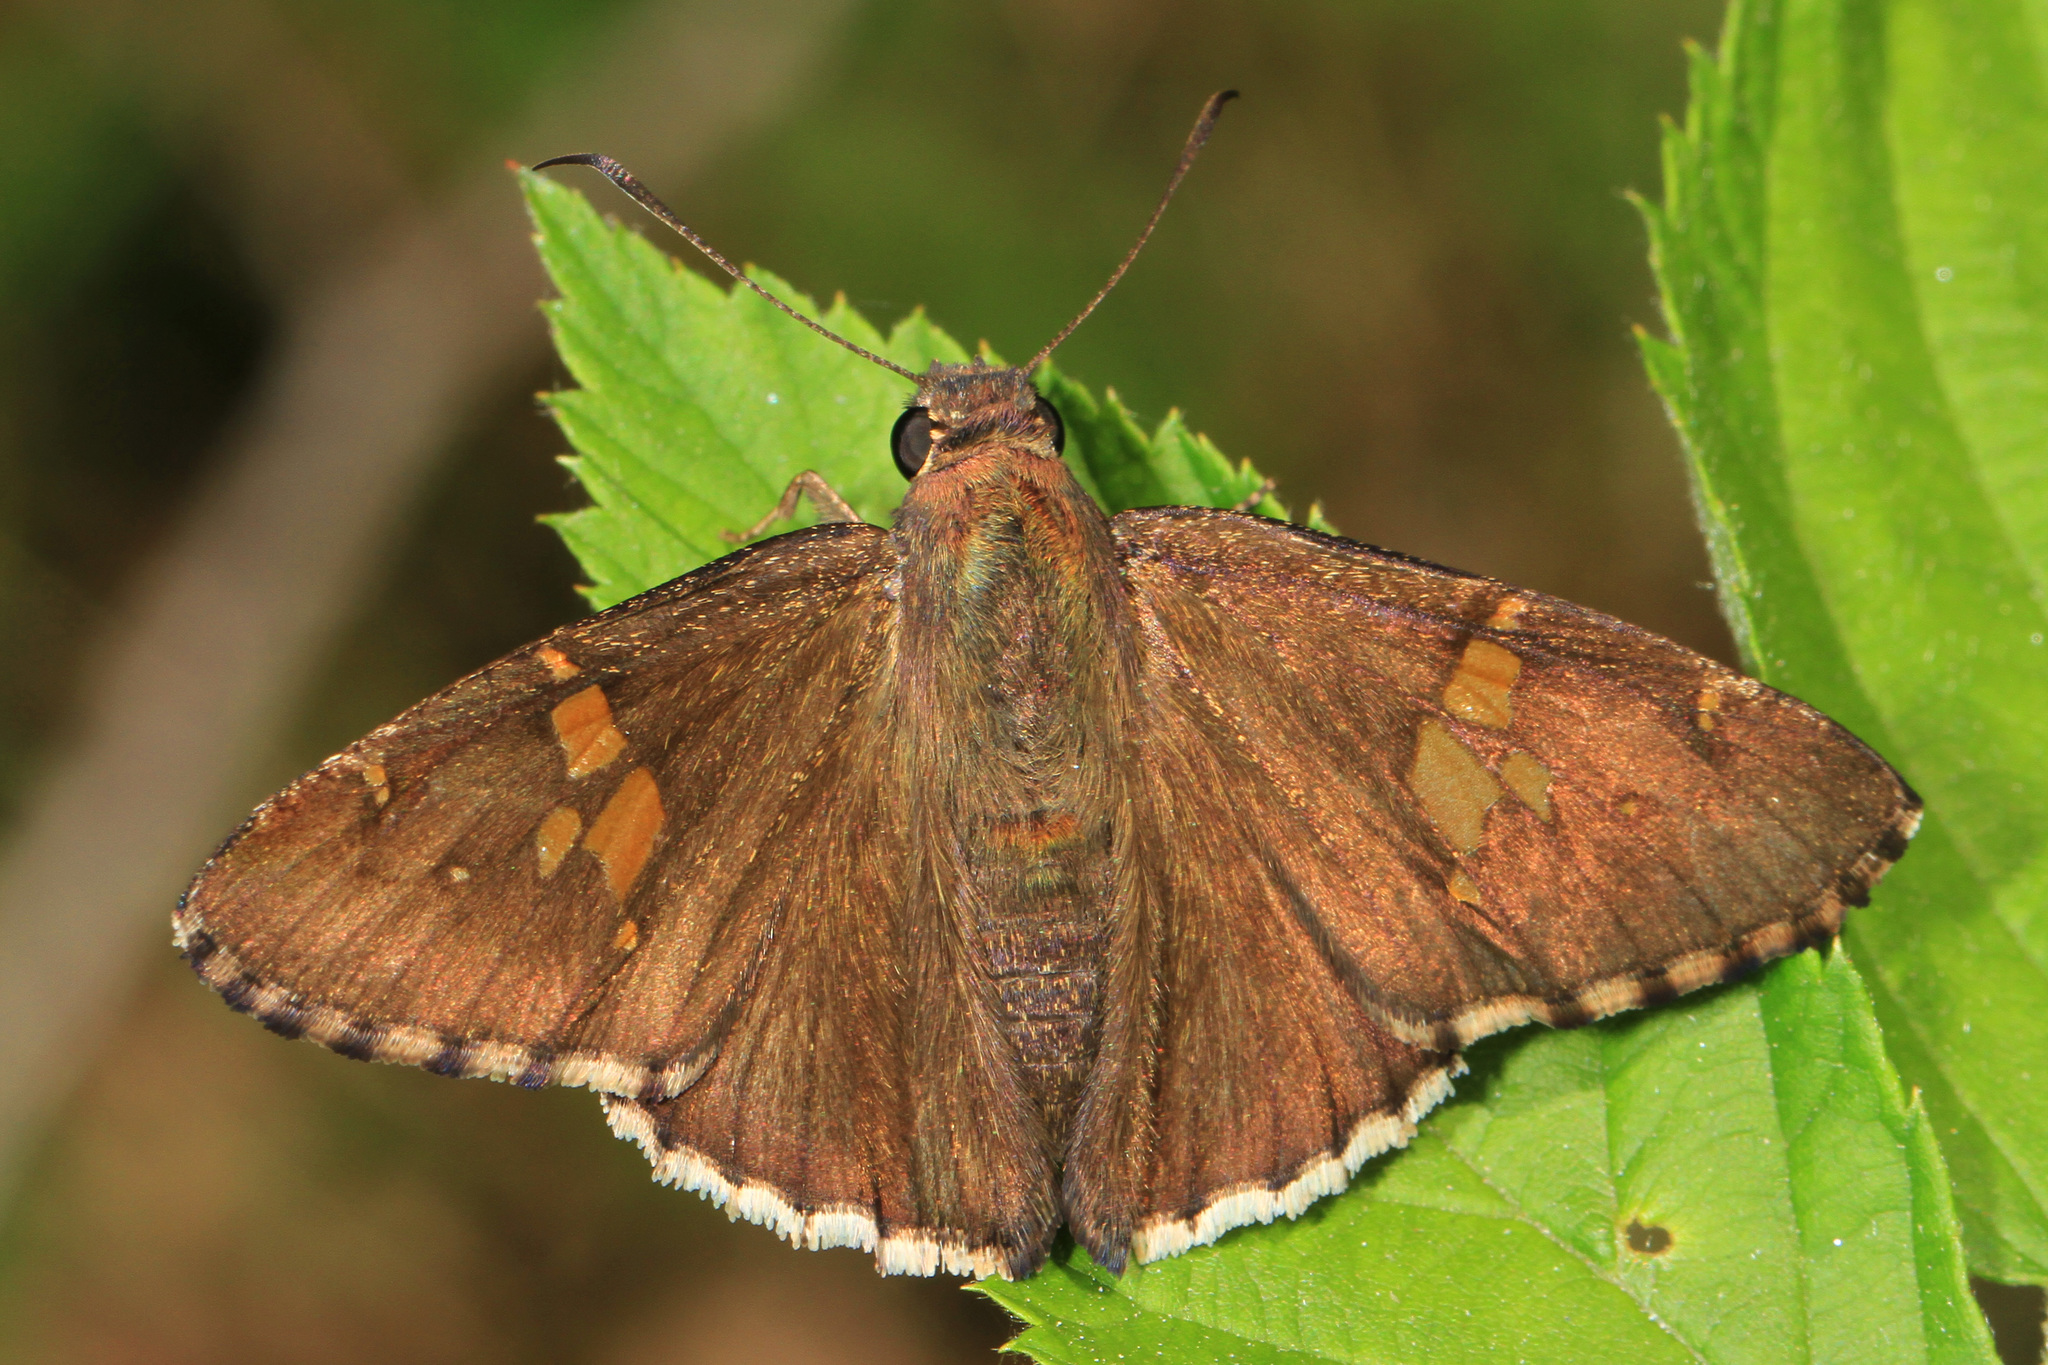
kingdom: Animalia
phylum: Arthropoda
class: Insecta
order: Lepidoptera
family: Hesperiidae
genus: Thorybes
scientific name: Thorybes lyciades
